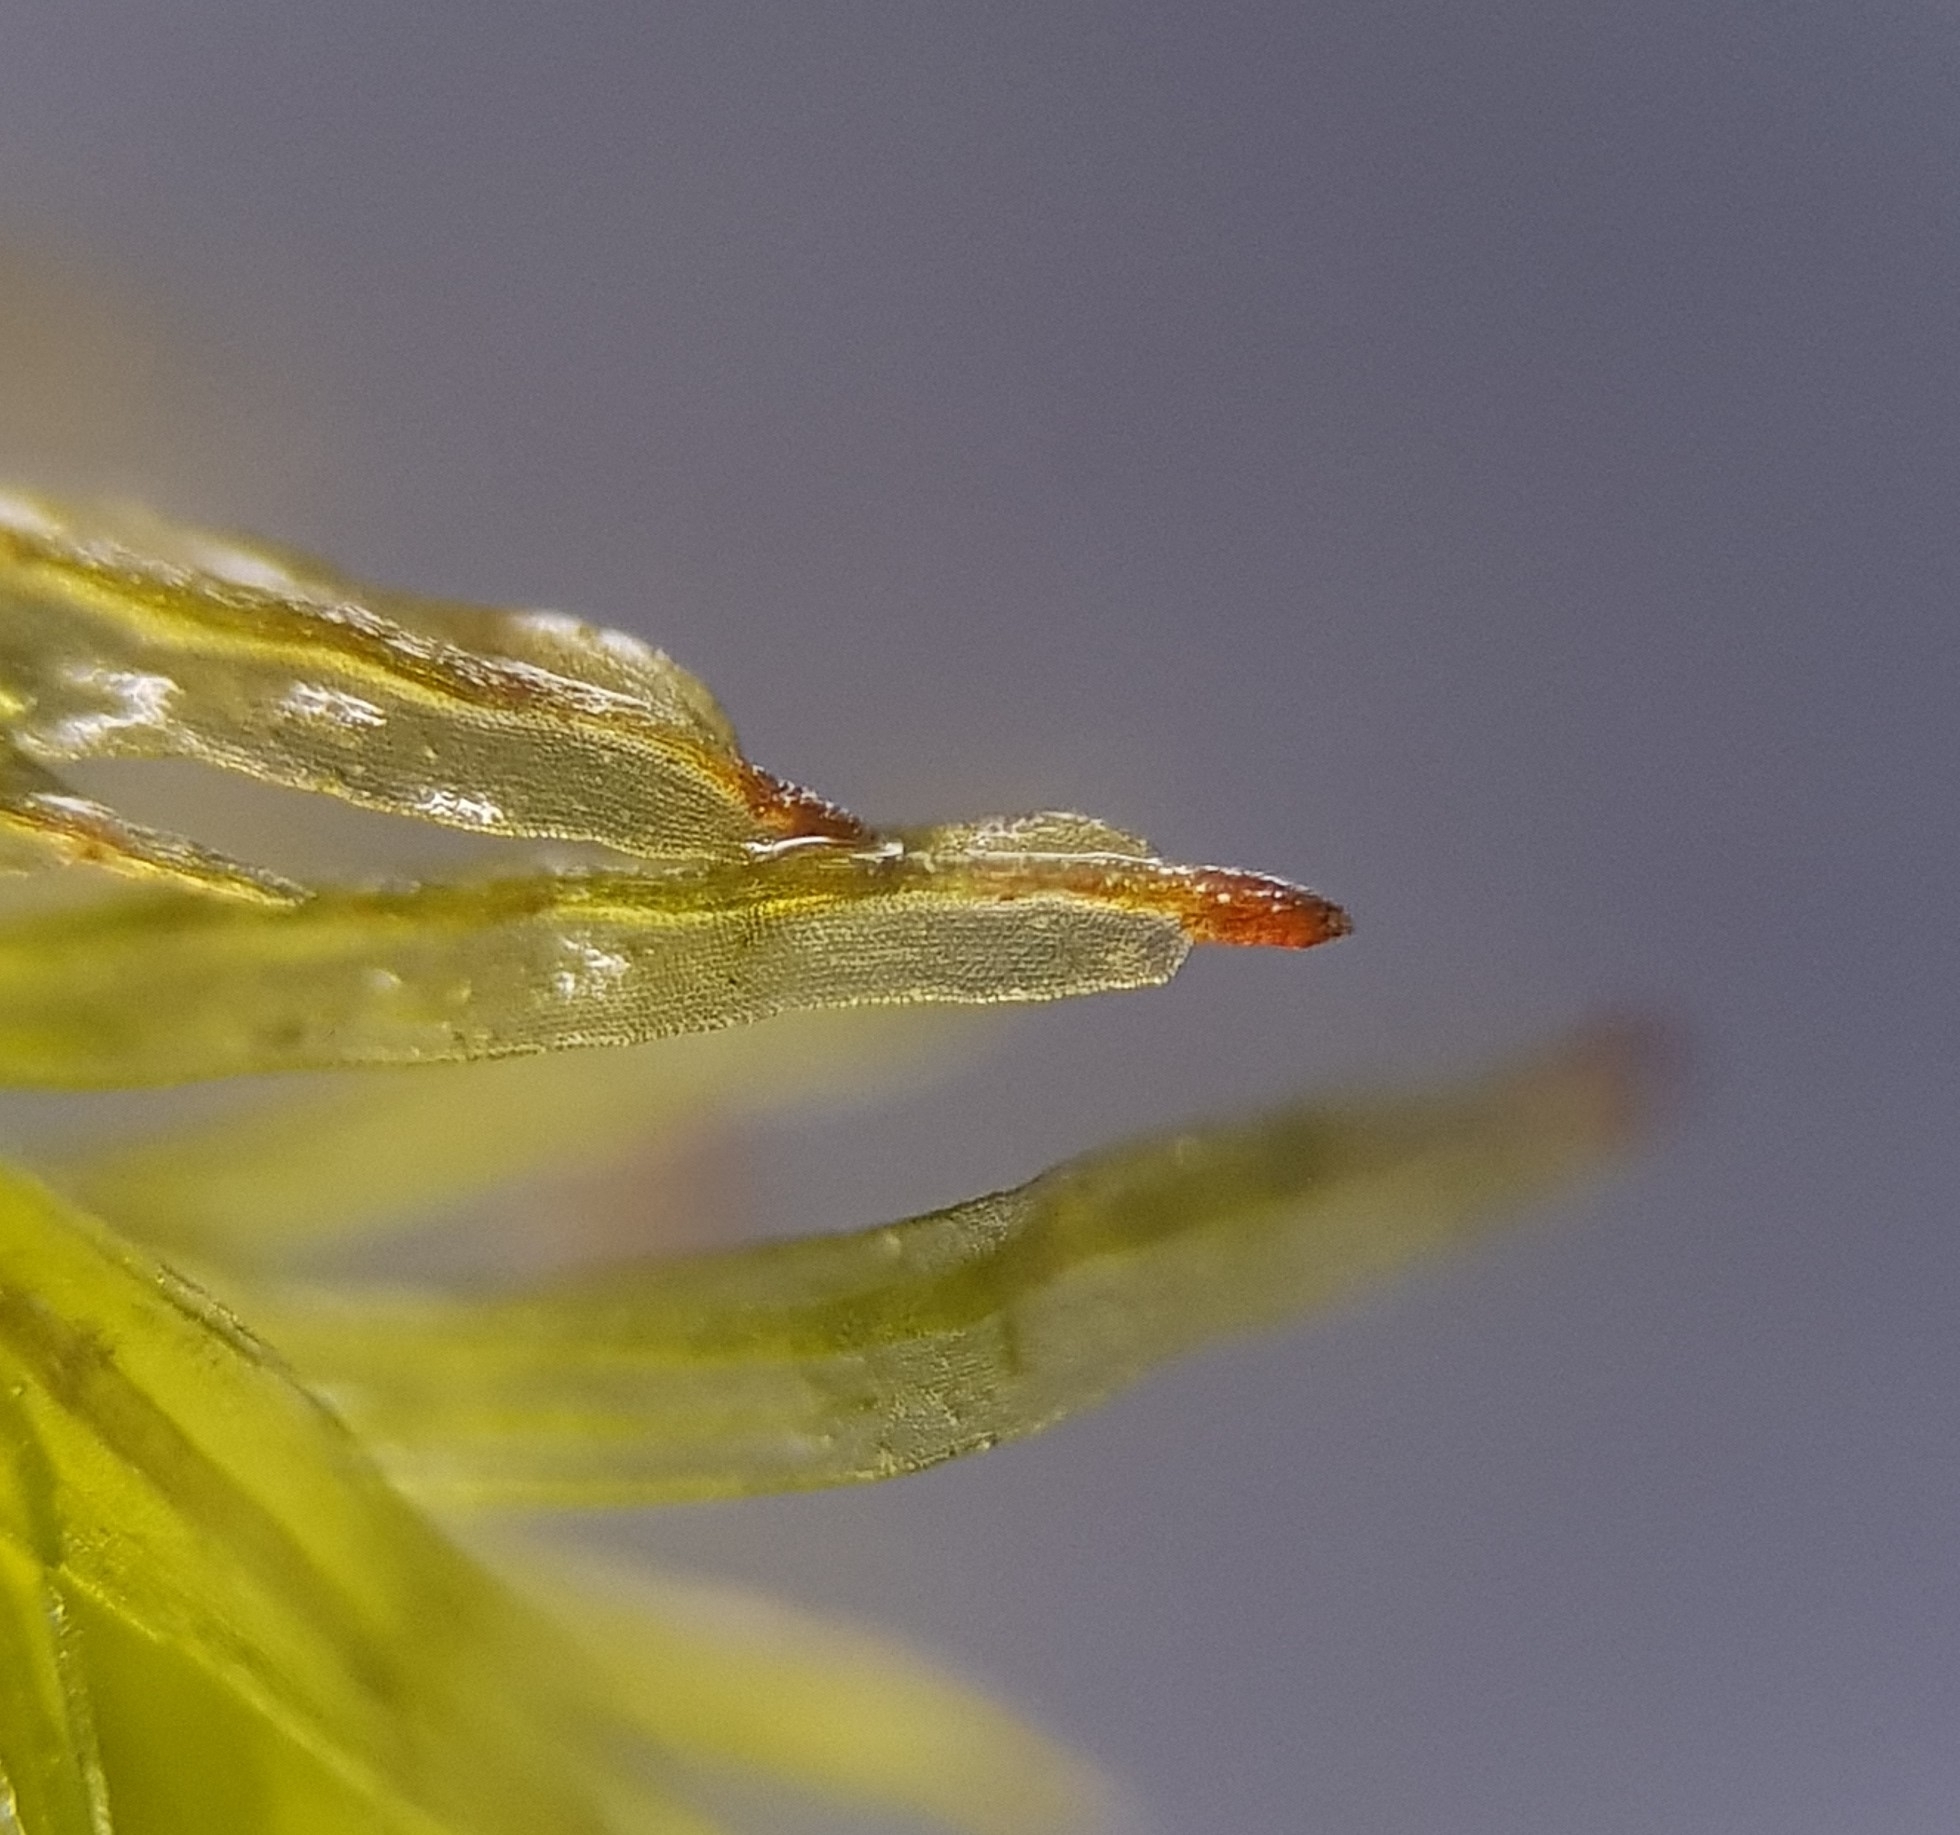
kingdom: Plantae
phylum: Bryophyta
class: Bryopsida
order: Orthotrichales
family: Orthotrichaceae
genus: Plenogemma
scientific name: Plenogemma phyllantha
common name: Frizzled pincushion
